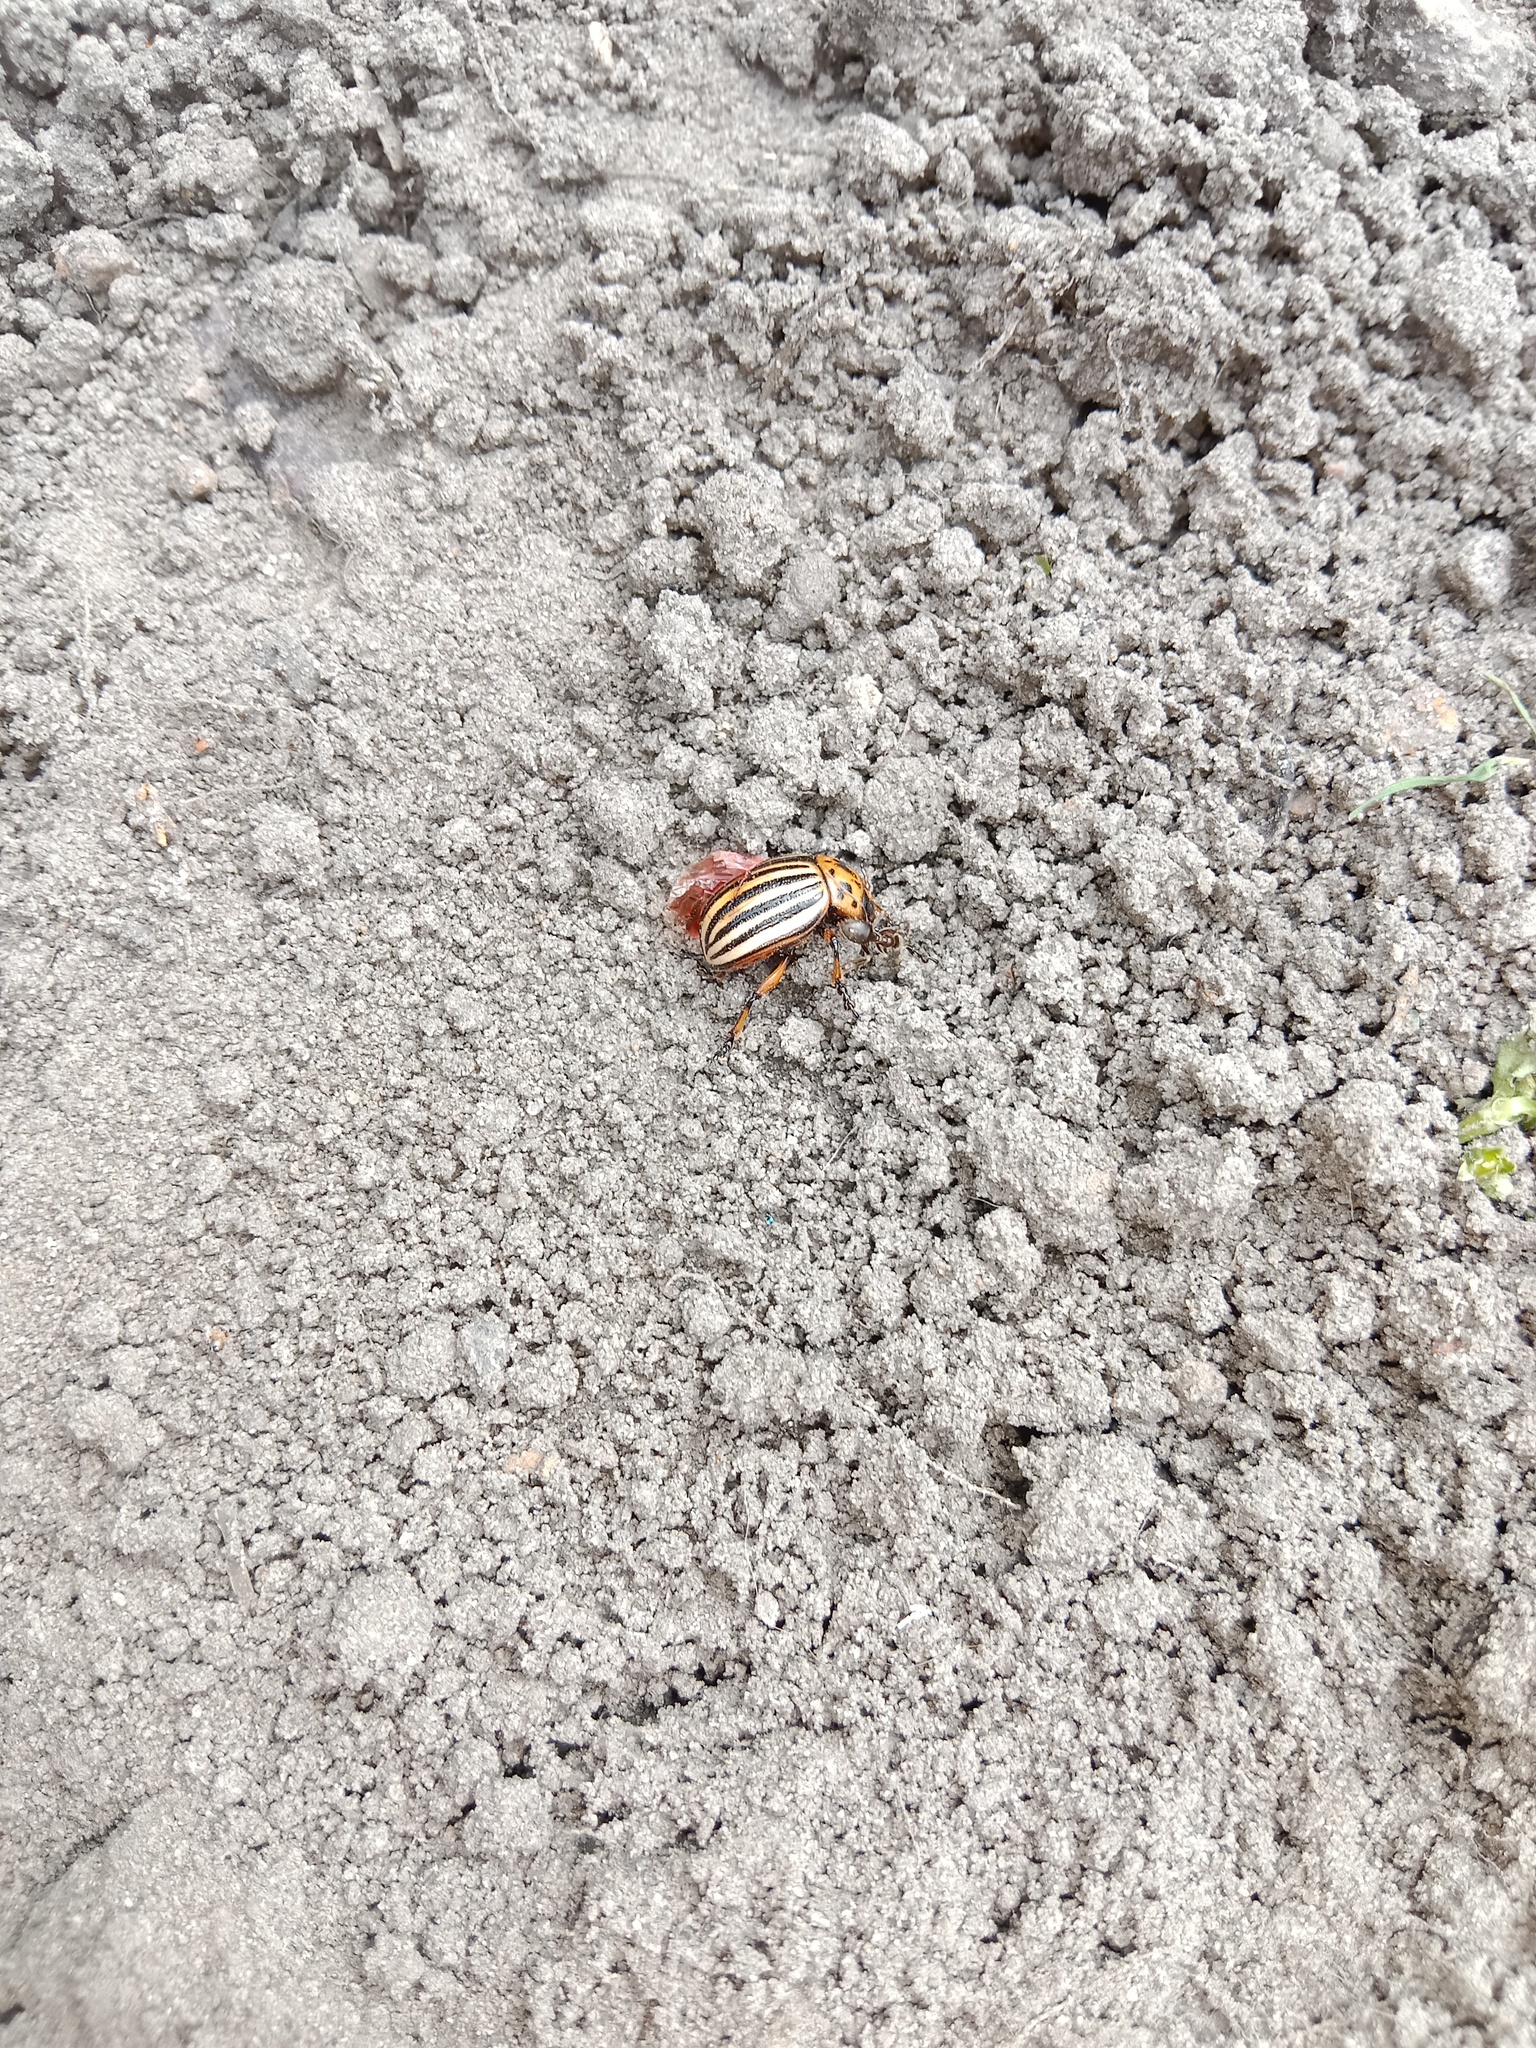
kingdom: Animalia
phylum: Arthropoda
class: Insecta
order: Coleoptera
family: Chrysomelidae
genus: Leptinotarsa
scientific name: Leptinotarsa decemlineata
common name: Colorado potato beetle
